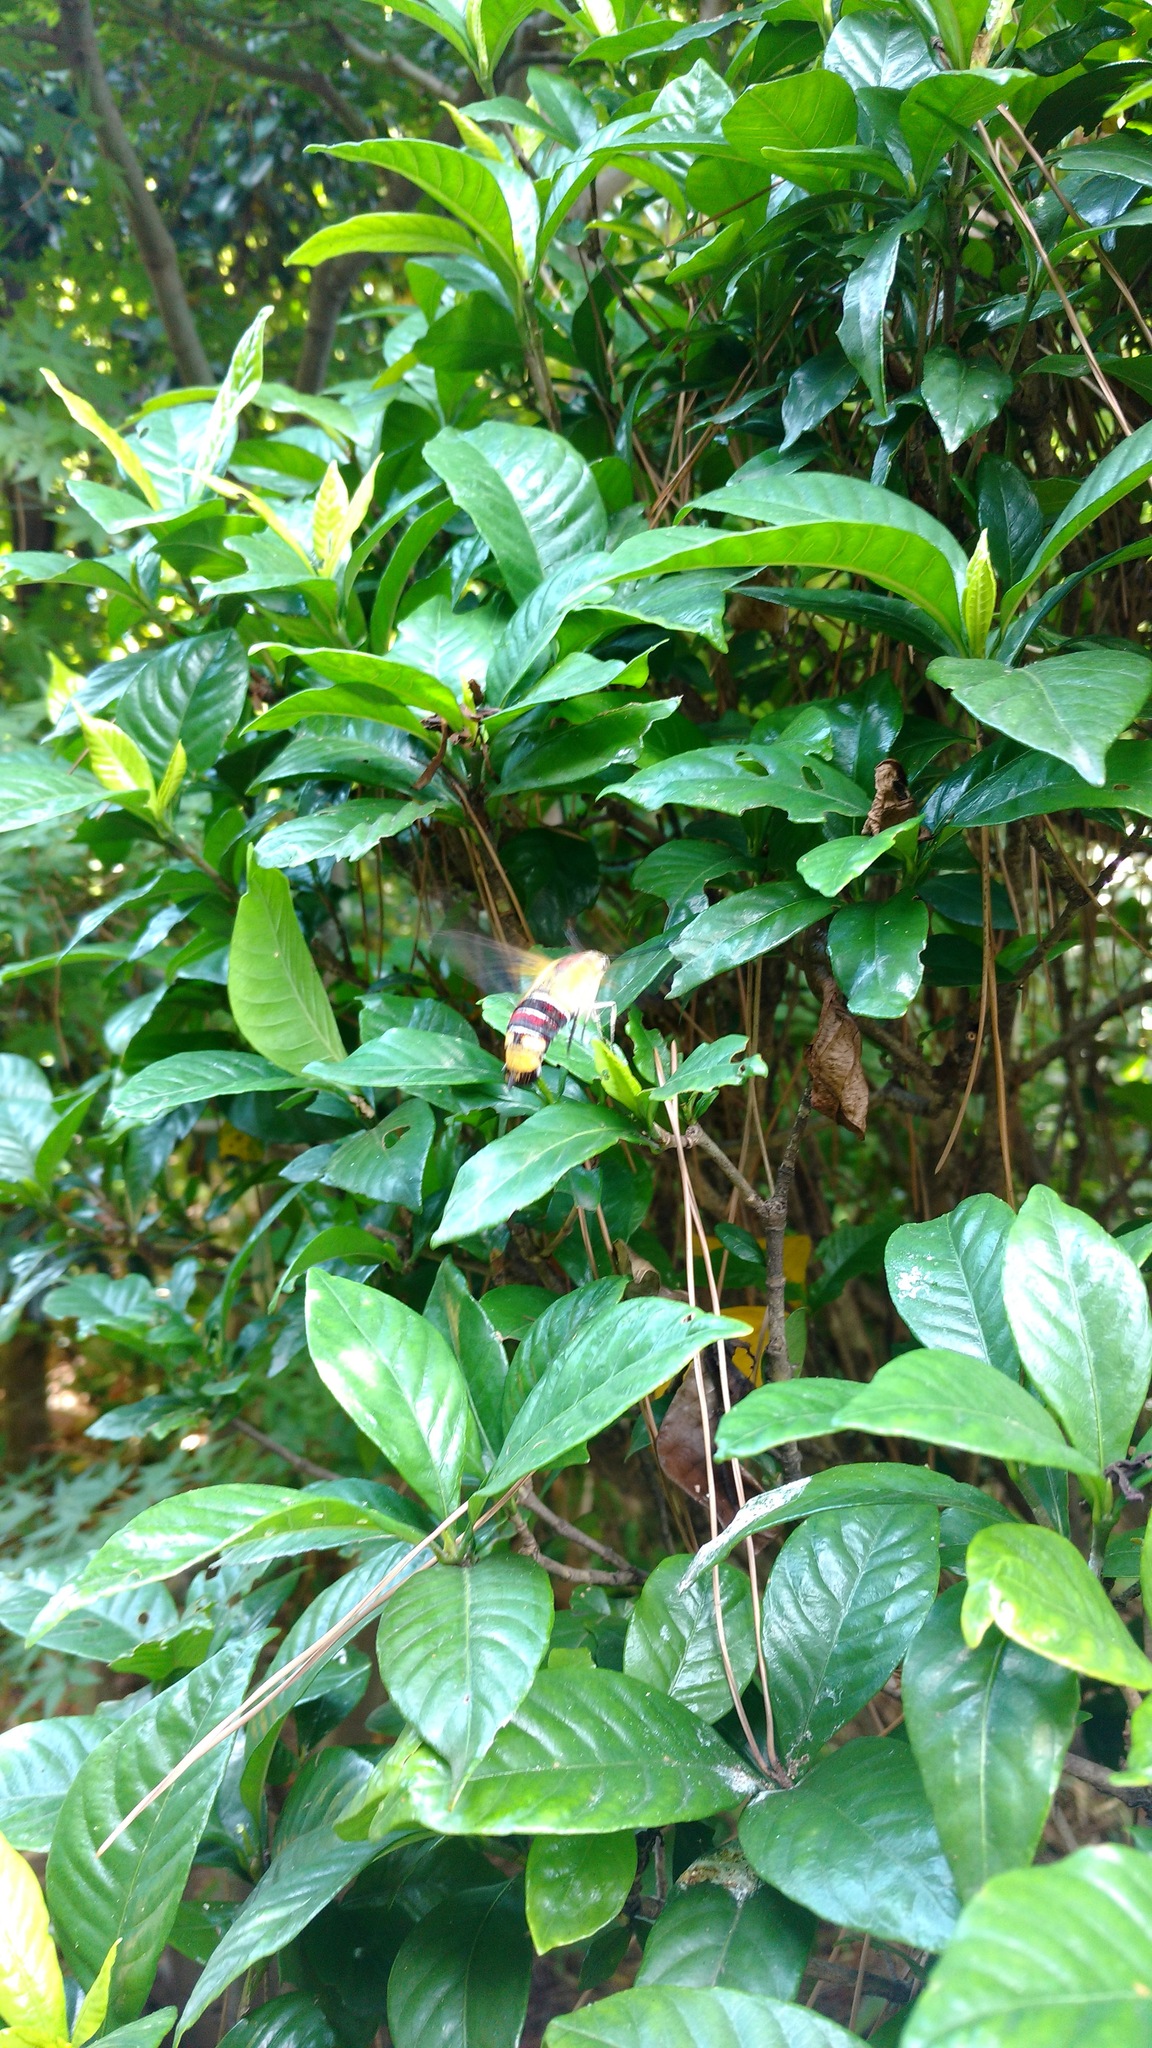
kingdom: Animalia
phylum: Arthropoda
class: Insecta
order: Lepidoptera
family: Sphingidae
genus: Cephonodes
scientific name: Cephonodes hylas
